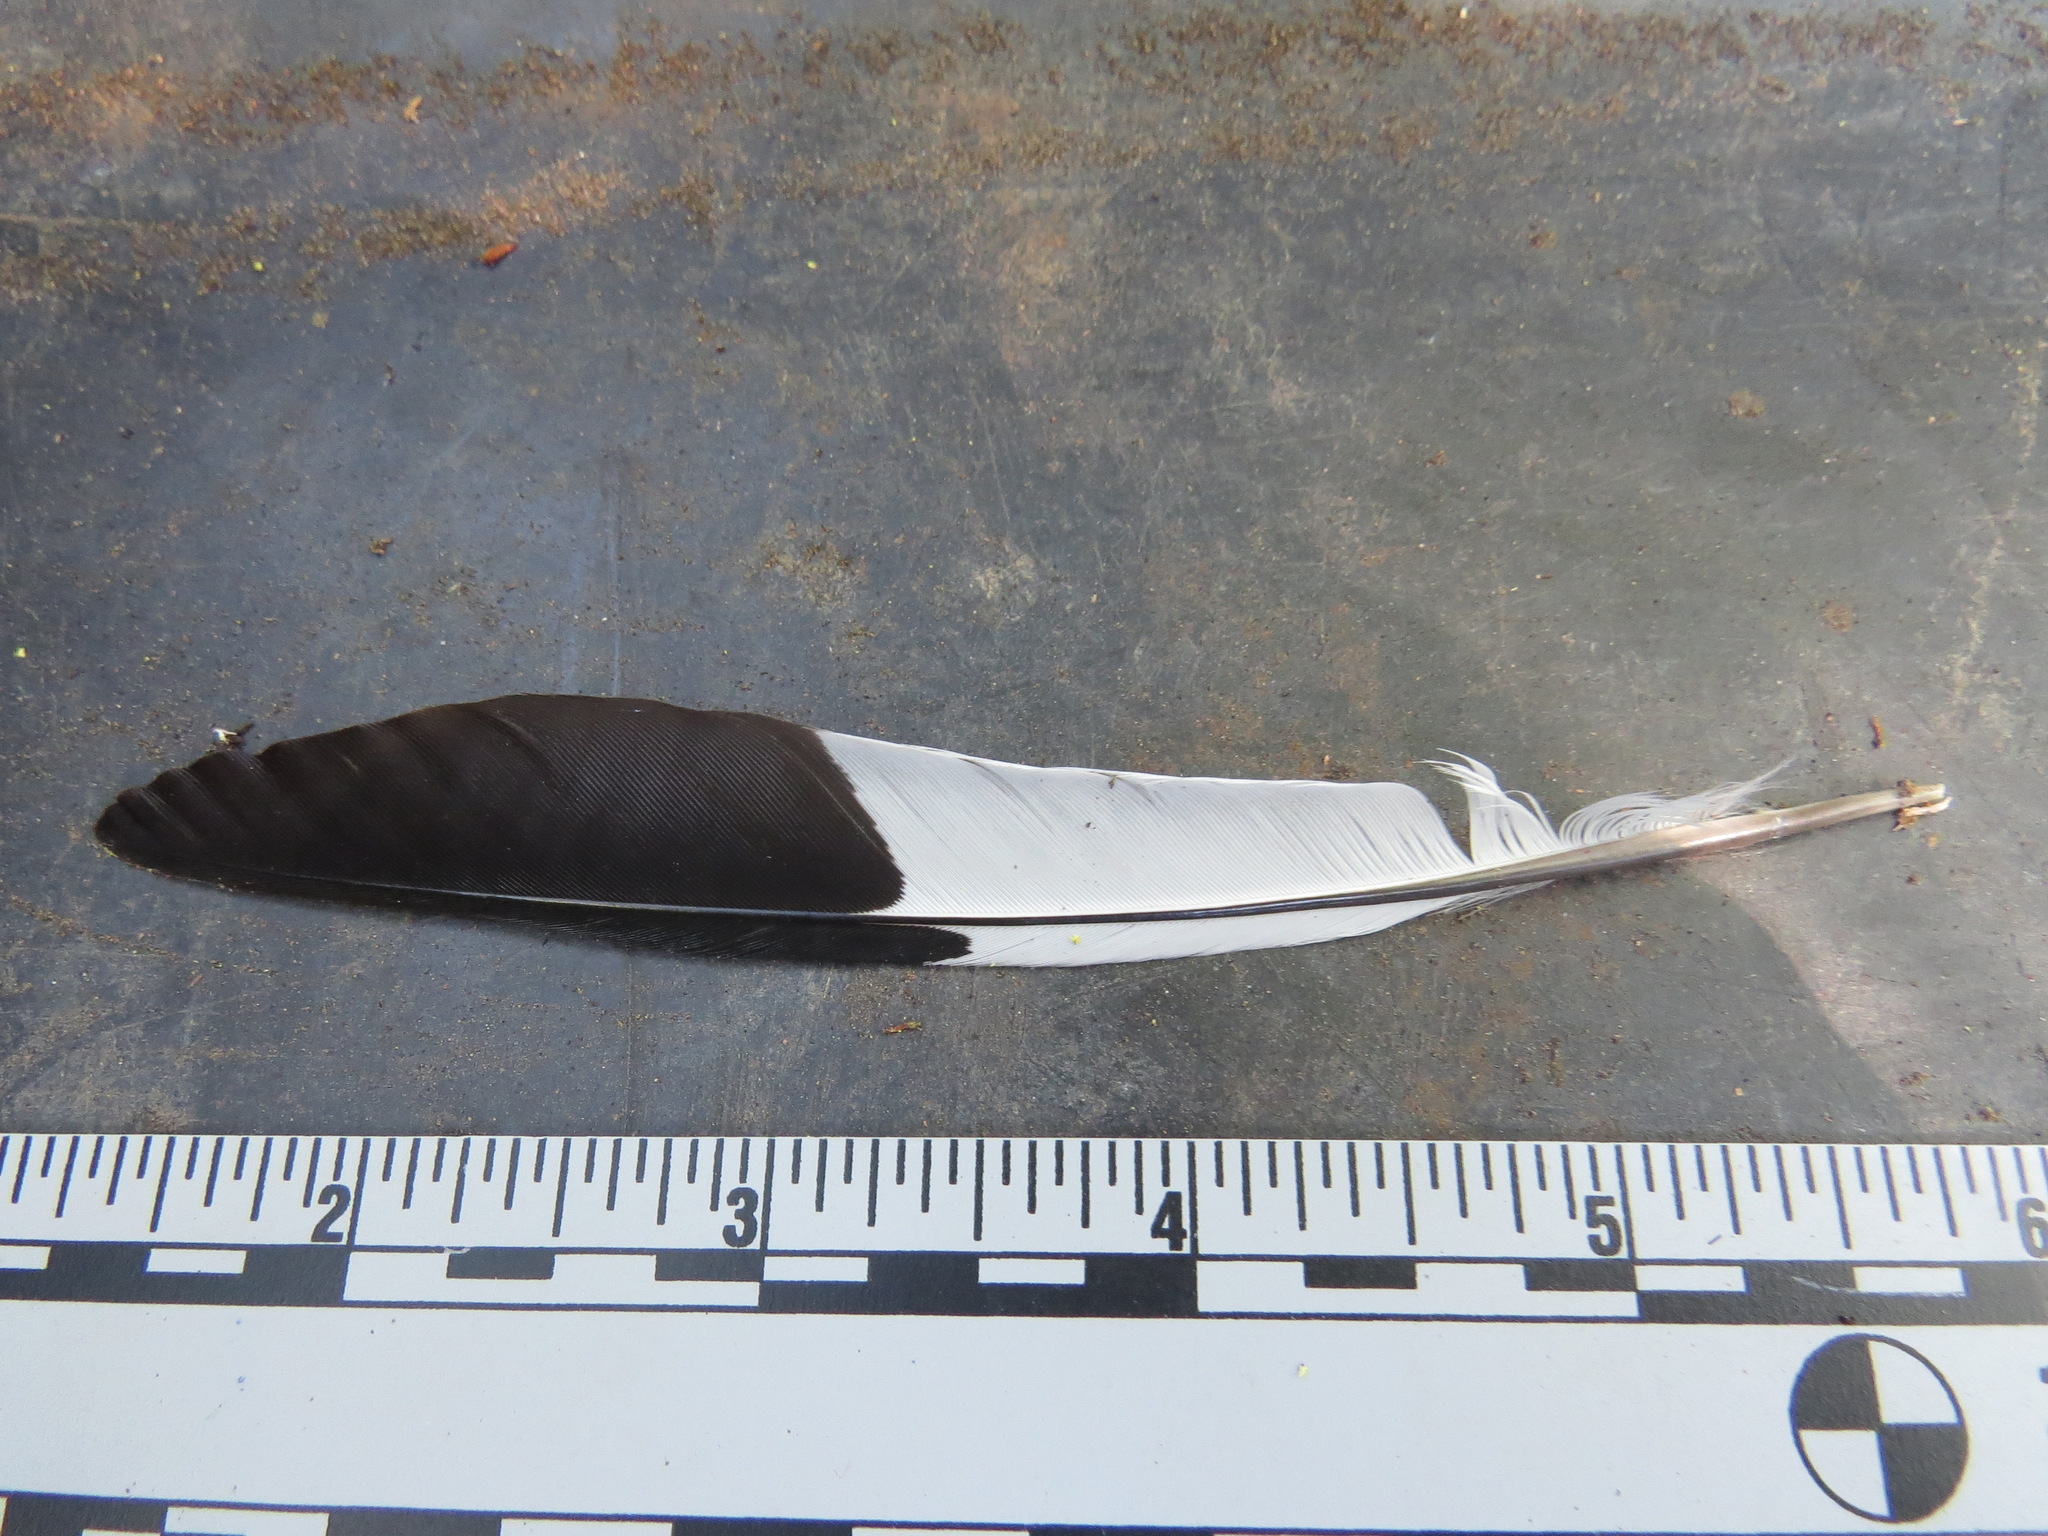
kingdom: Animalia
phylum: Chordata
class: Aves
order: Piciformes
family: Picidae
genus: Melanerpes
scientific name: Melanerpes formicivorus
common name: Acorn woodpecker
